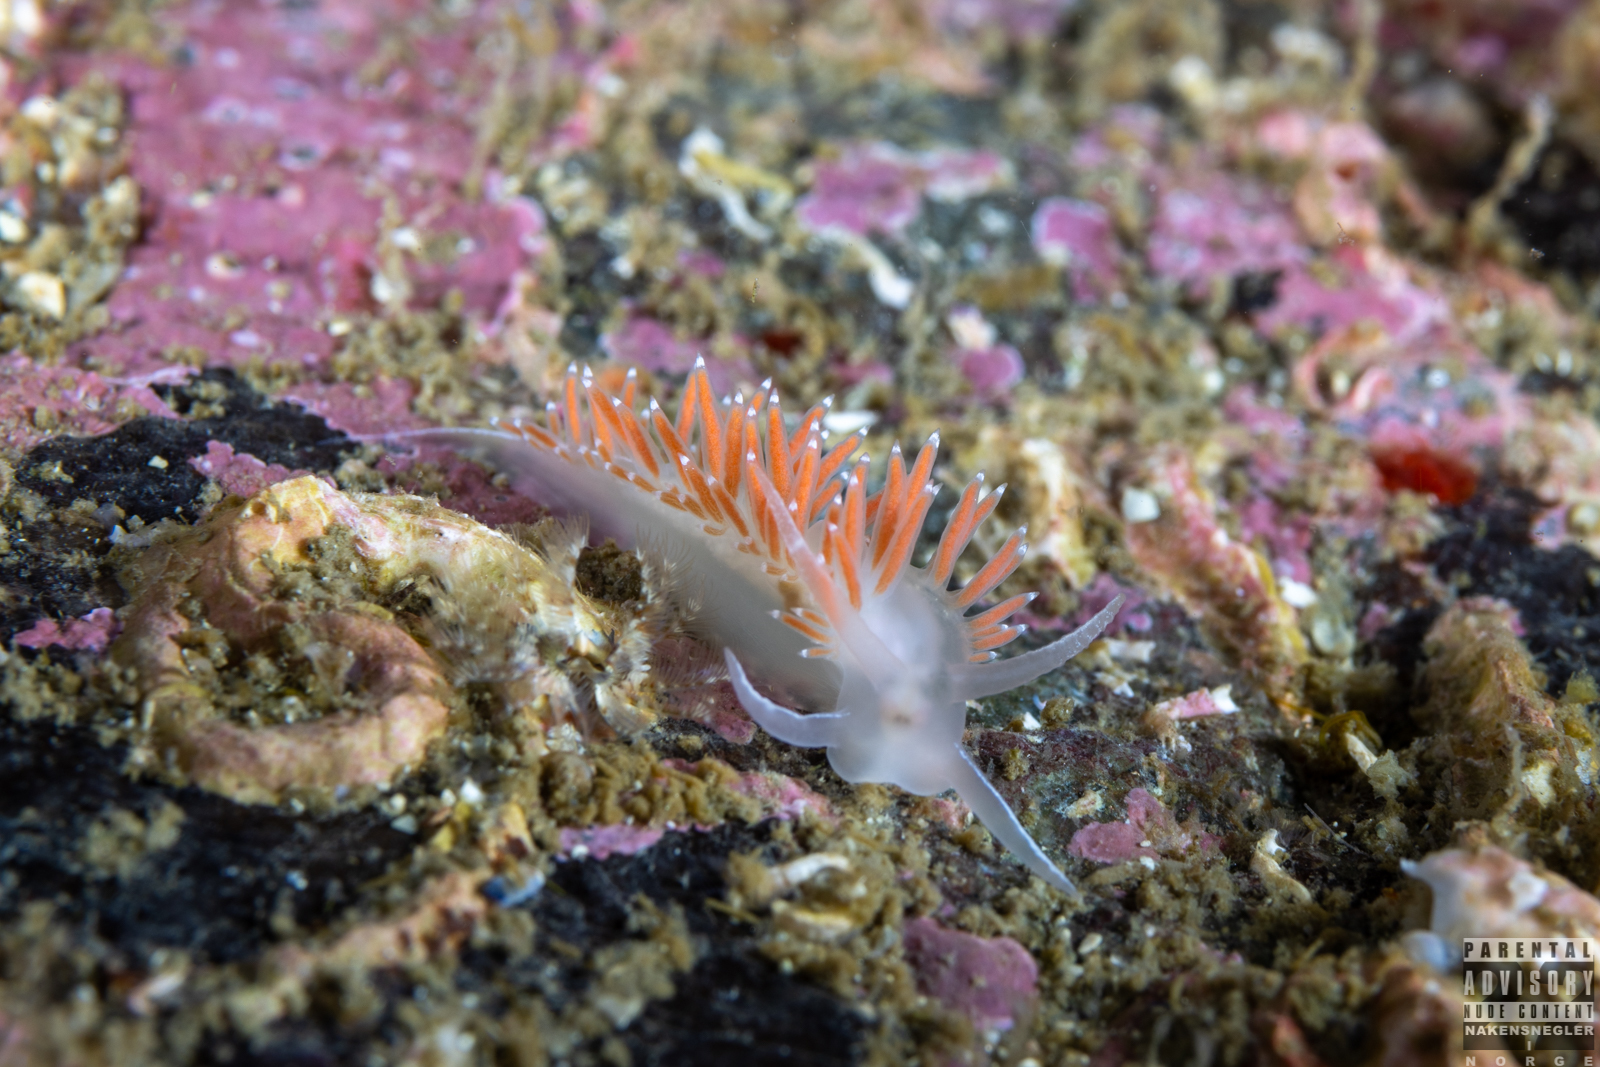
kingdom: Animalia
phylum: Mollusca
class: Gastropoda
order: Nudibranchia
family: Coryphellidae
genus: Coryphella
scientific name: Coryphella verrucosa
